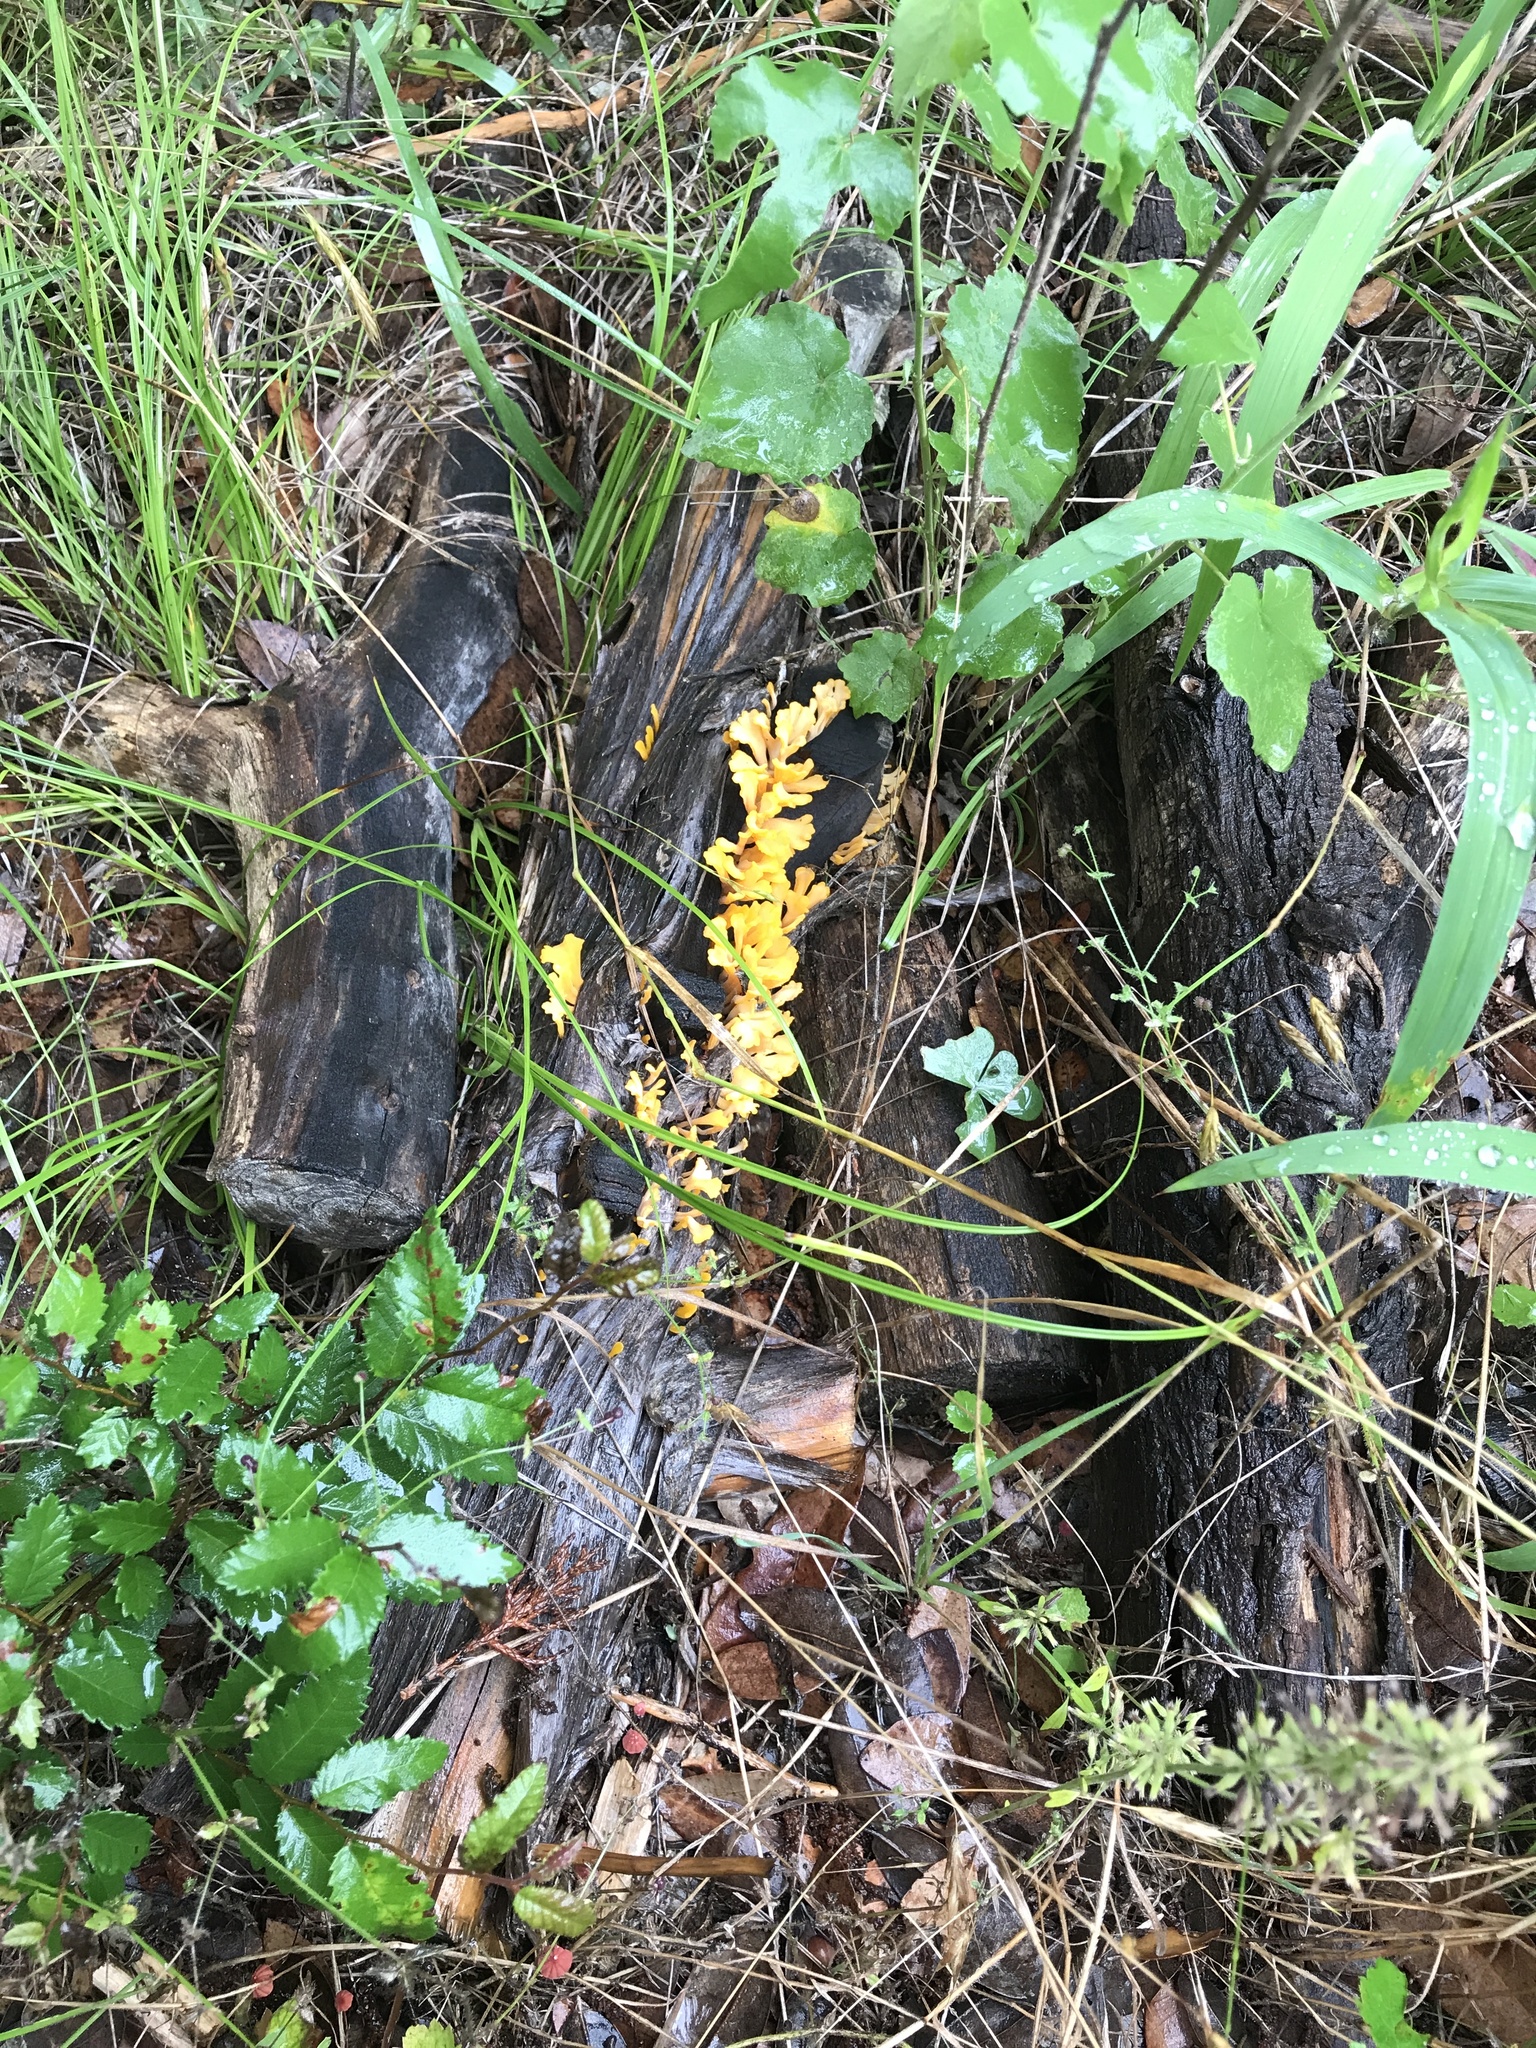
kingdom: Fungi
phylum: Basidiomycota
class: Dacrymycetes
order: Dacrymycetales
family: Dacrymycetaceae
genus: Dacrymyces
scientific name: Dacrymyces spathularius
